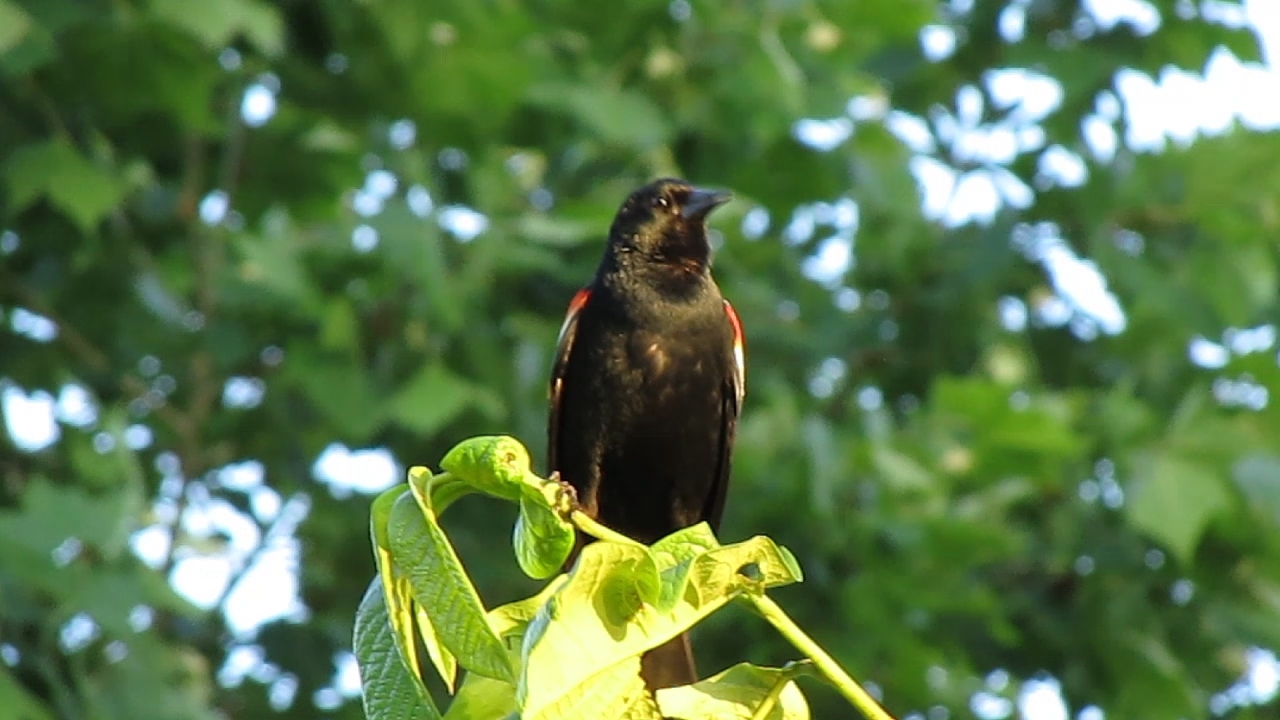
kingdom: Animalia
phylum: Chordata
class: Aves
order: Passeriformes
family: Icteridae
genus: Agelaius
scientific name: Agelaius phoeniceus
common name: Red-winged blackbird
